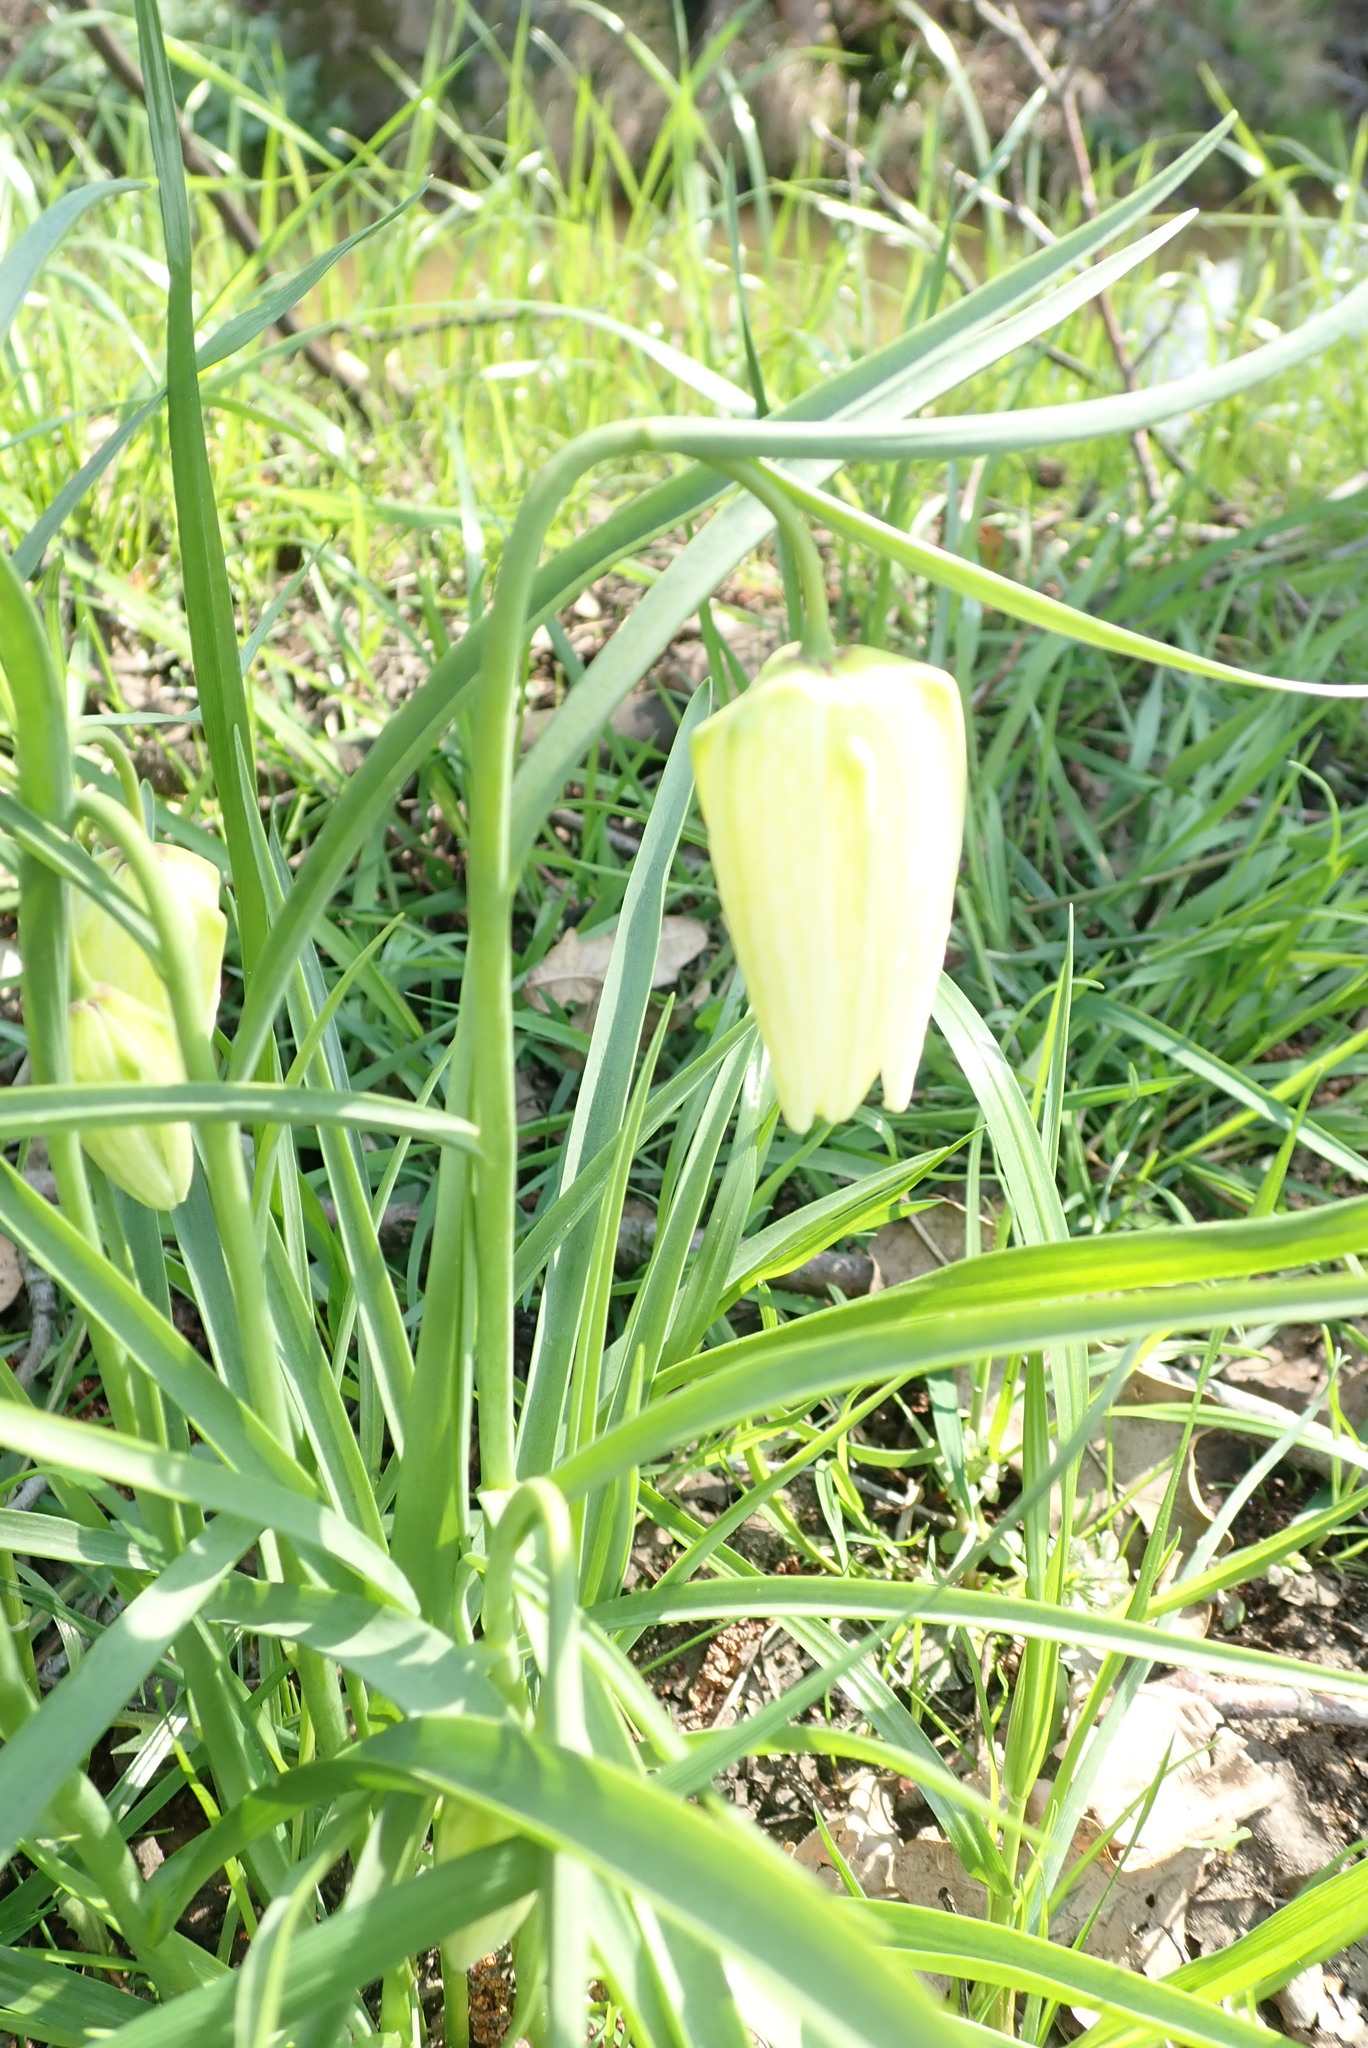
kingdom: Plantae
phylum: Tracheophyta
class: Liliopsida
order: Liliales
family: Liliaceae
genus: Fritillaria
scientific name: Fritillaria meleagris
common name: Fritillary
